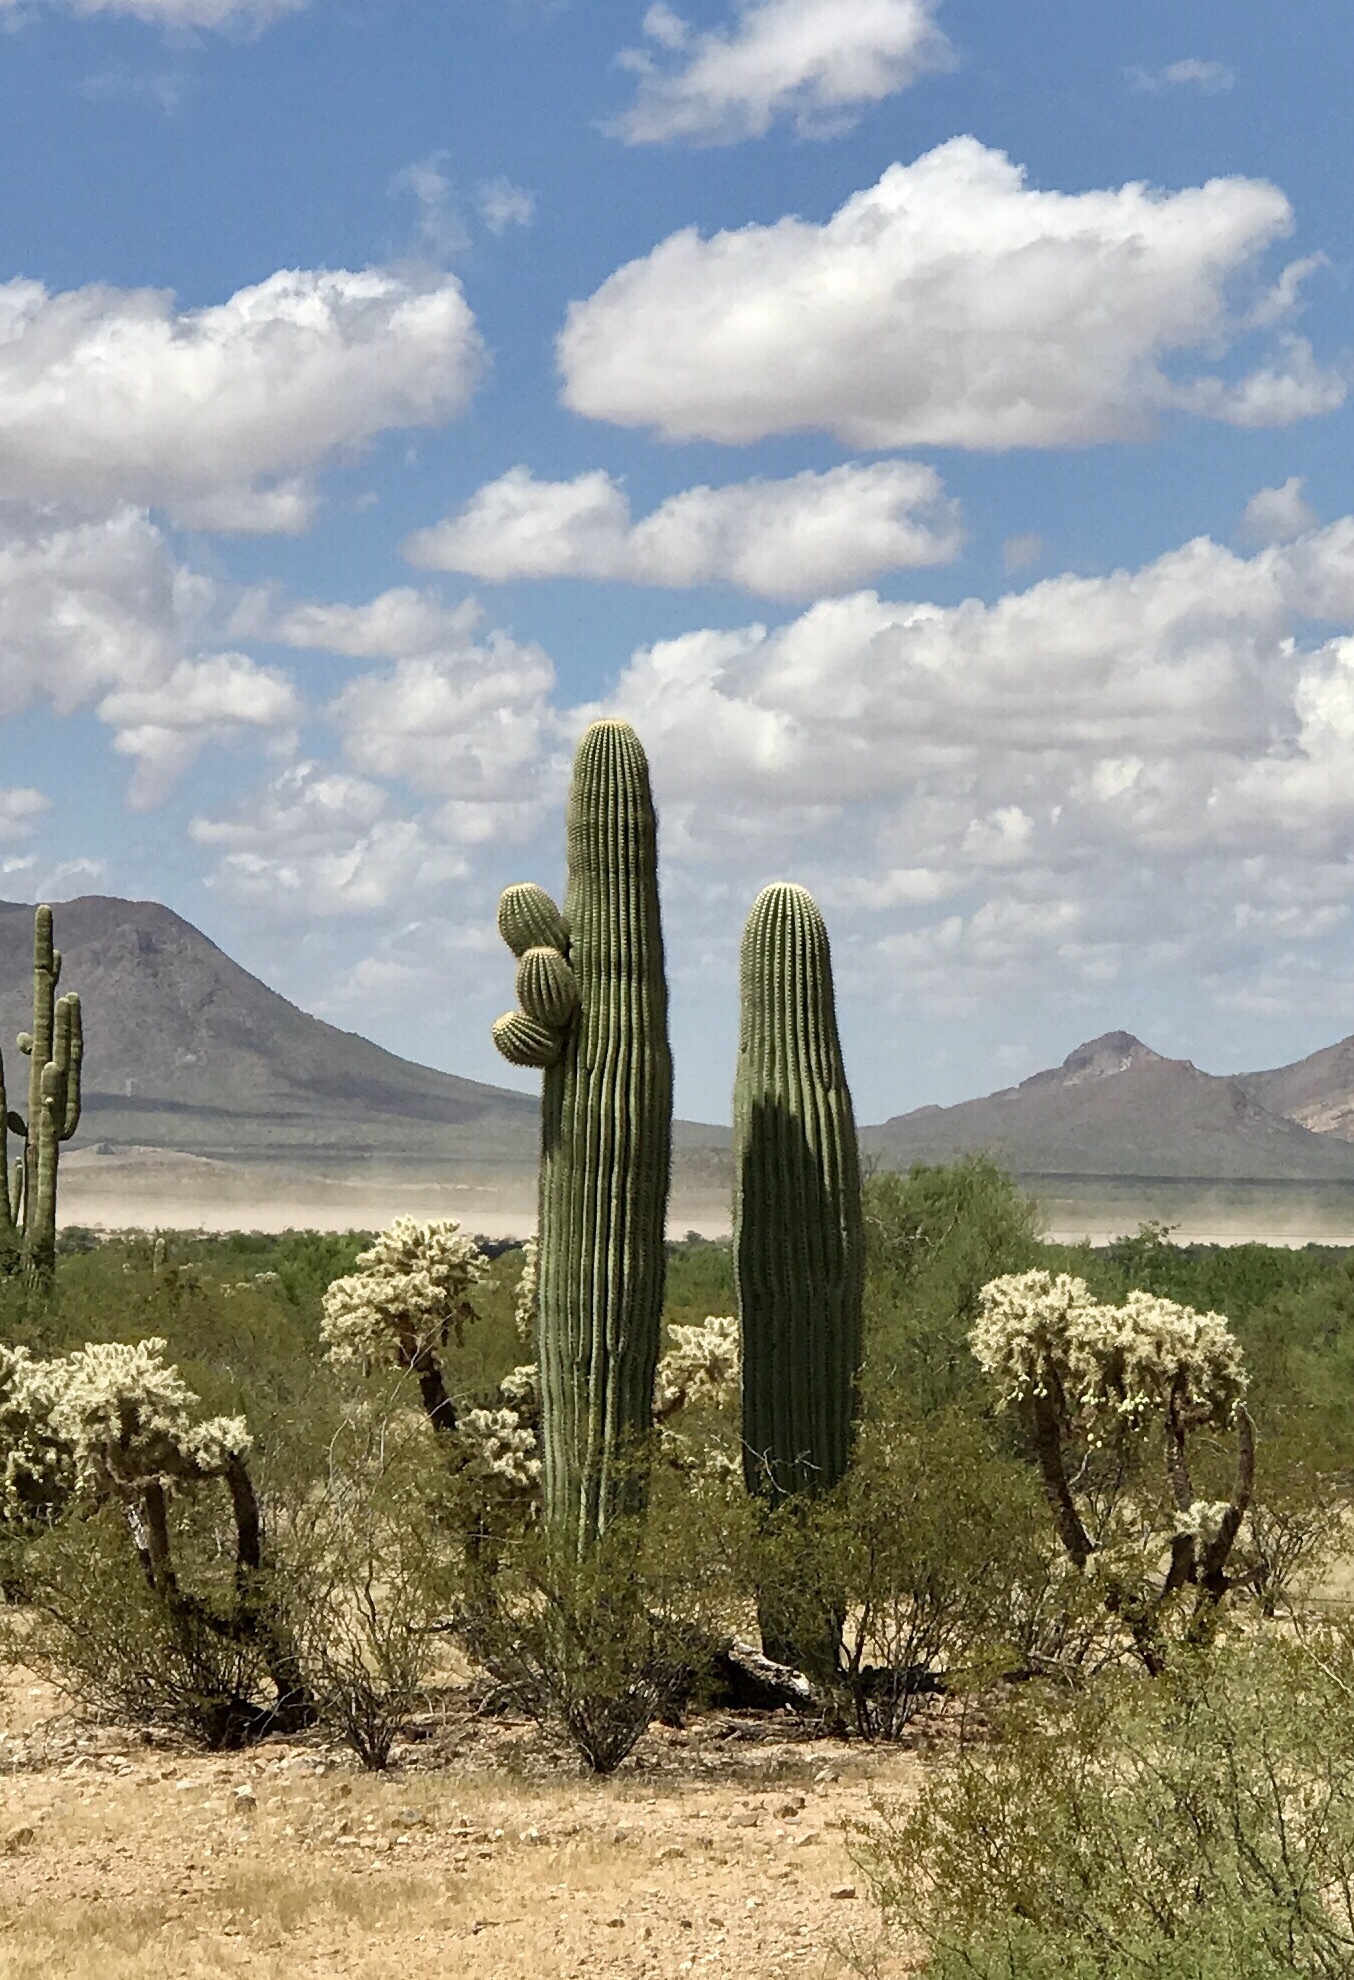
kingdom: Plantae
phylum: Tracheophyta
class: Magnoliopsida
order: Caryophyllales
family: Cactaceae
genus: Carnegiea
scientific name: Carnegiea gigantea
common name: Saguaro
